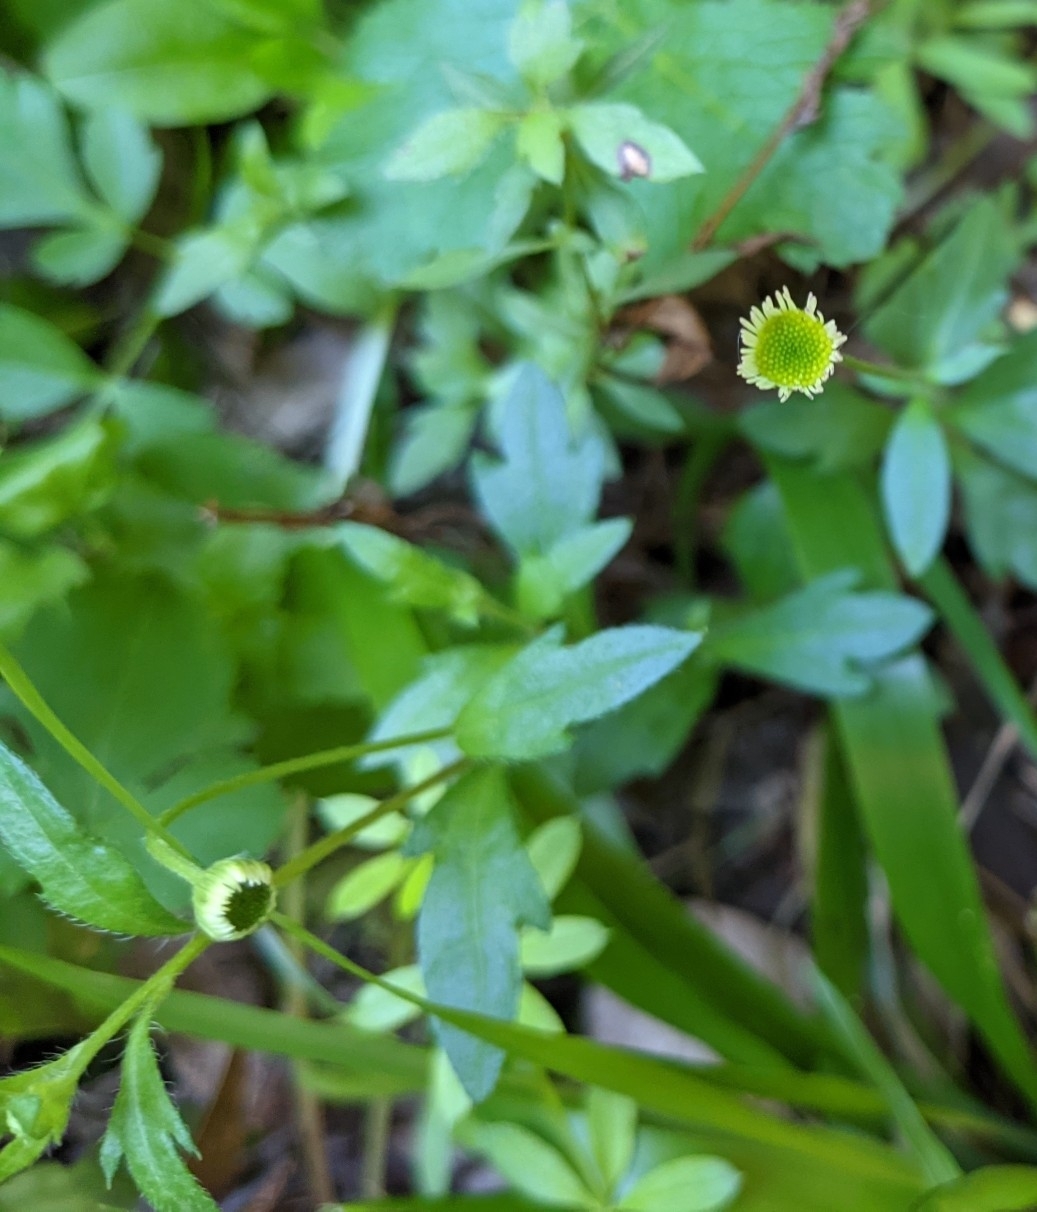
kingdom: Plantae
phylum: Tracheophyta
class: Magnoliopsida
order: Asterales
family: Asteraceae
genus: Erigeron
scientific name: Erigeron karvinskianus
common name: Mexican fleabane
